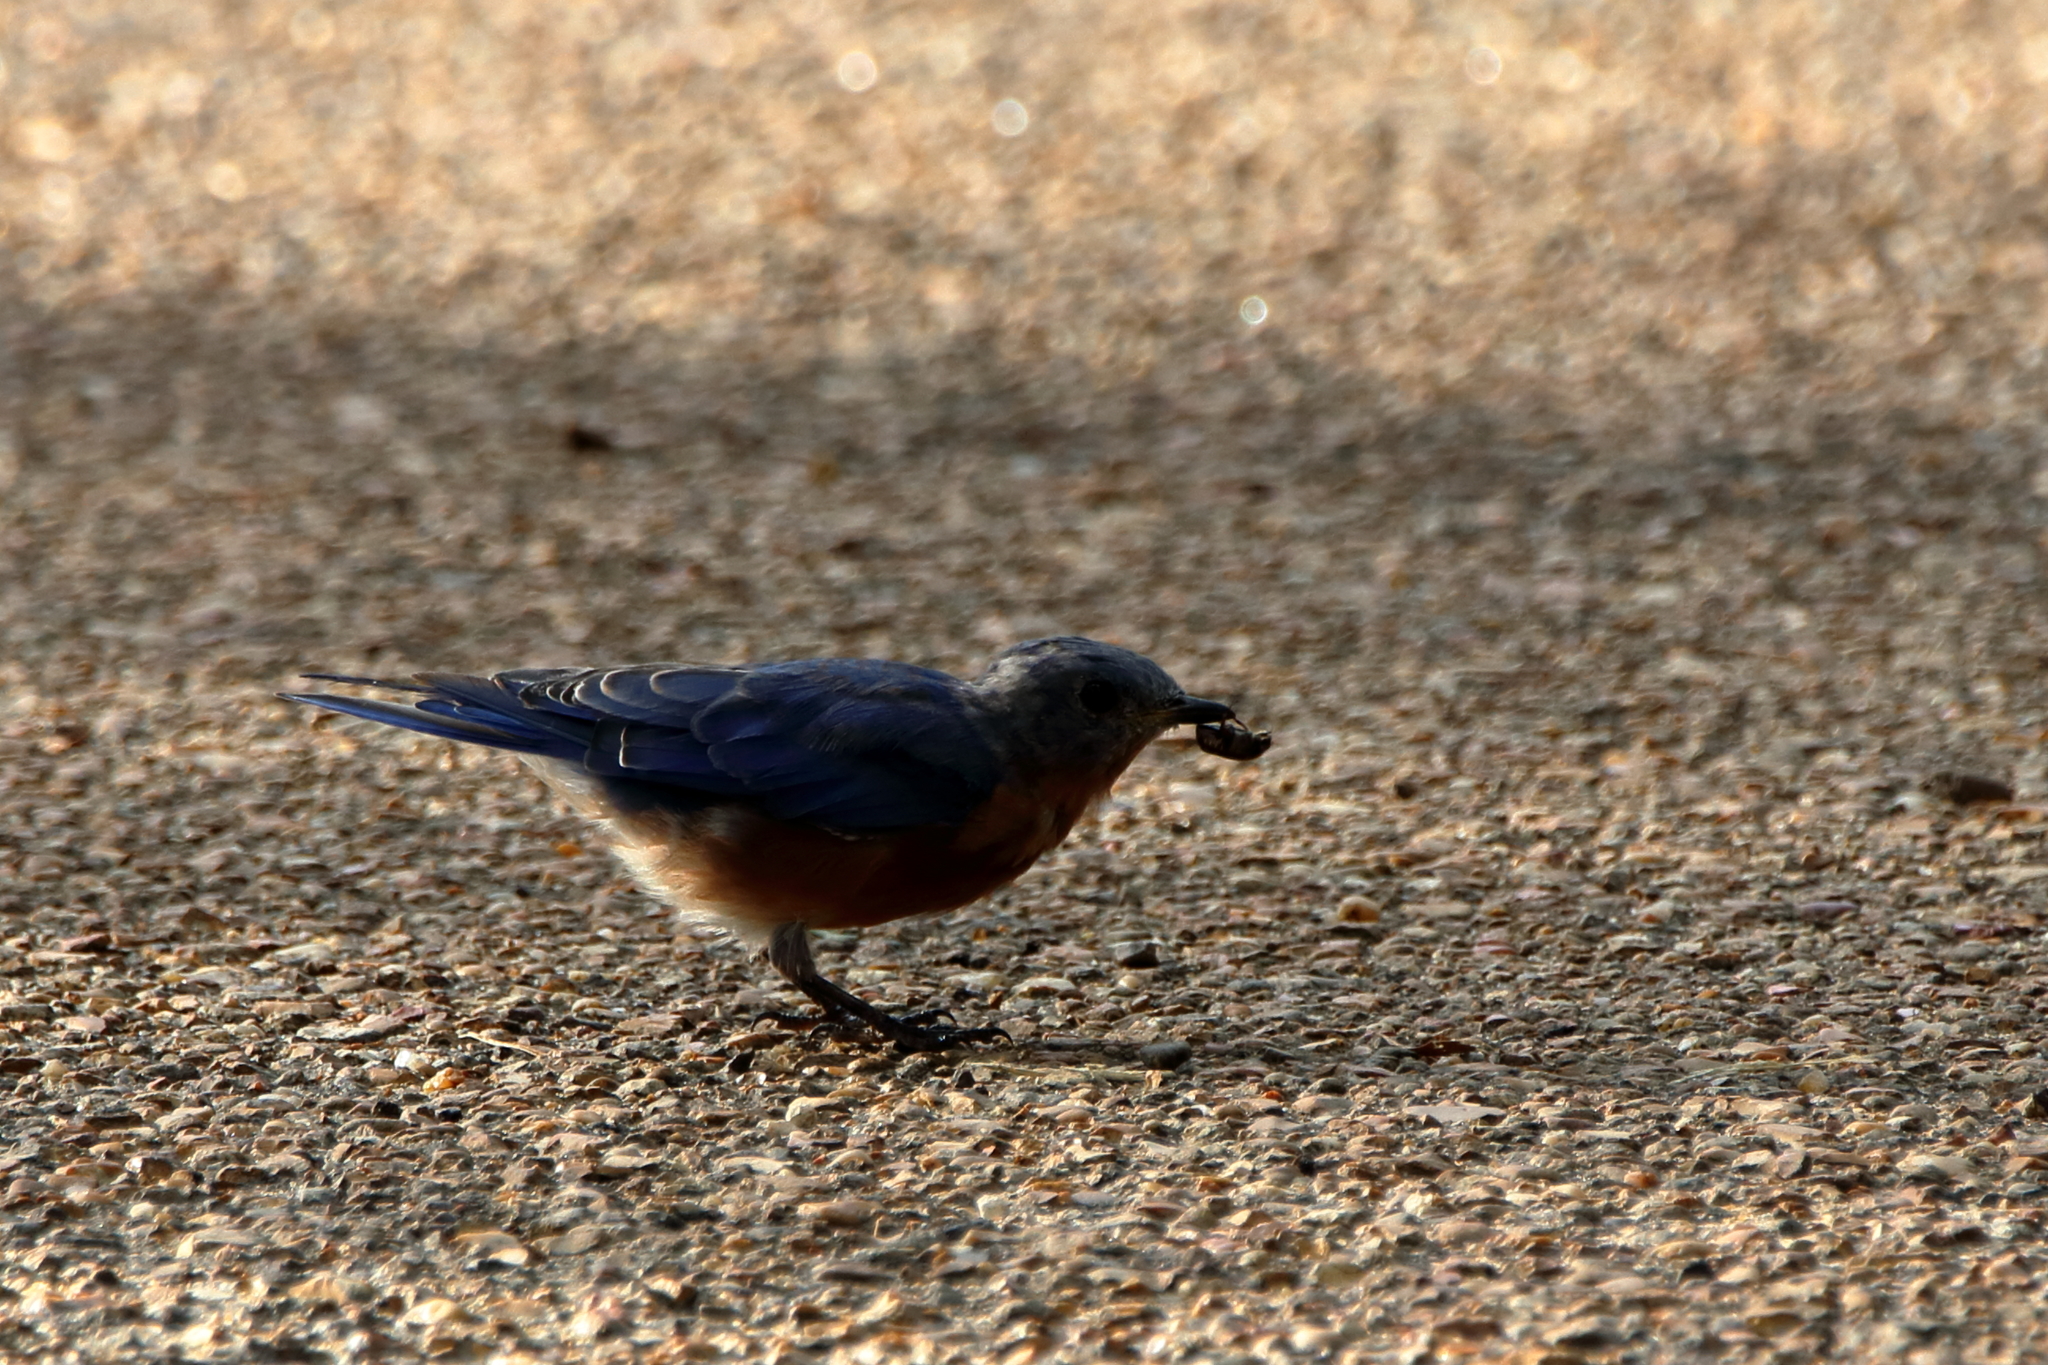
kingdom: Animalia
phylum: Chordata
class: Aves
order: Passeriformes
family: Turdidae
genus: Sialia
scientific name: Sialia sialis
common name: Eastern bluebird
